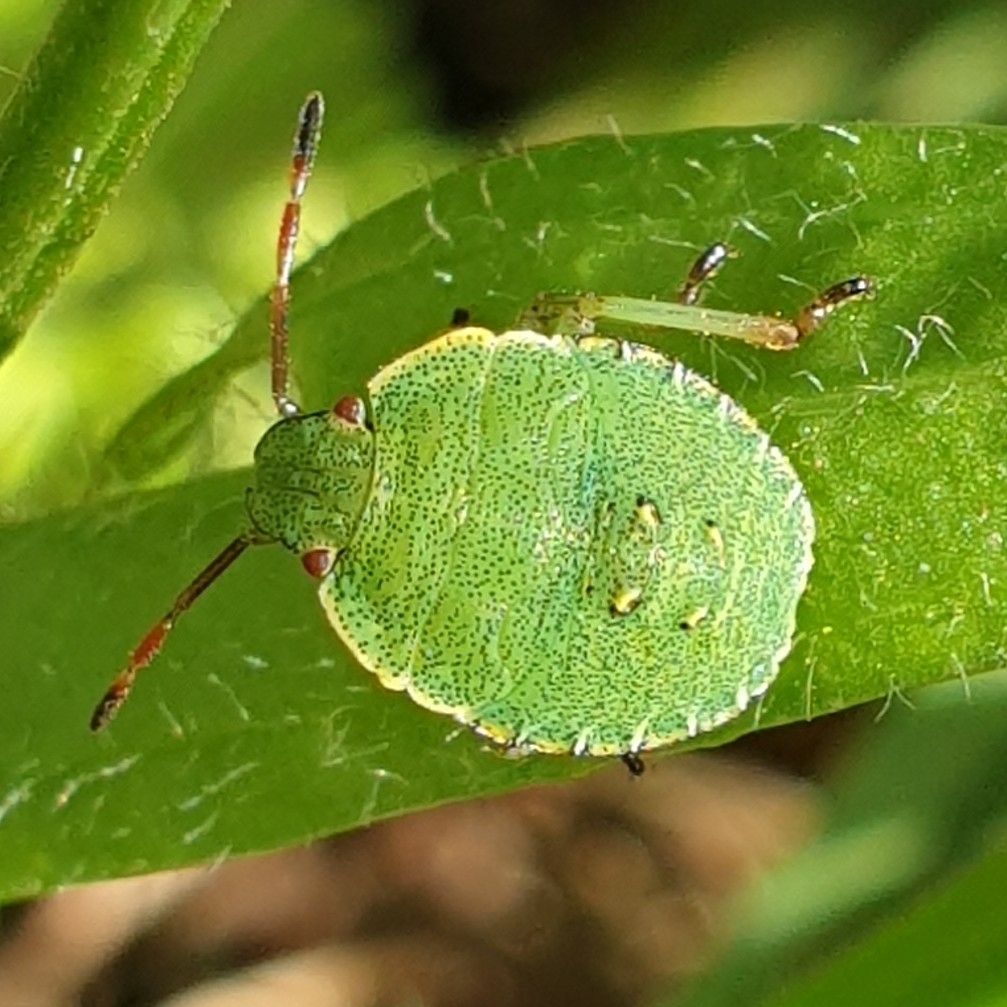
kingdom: Animalia
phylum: Arthropoda
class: Insecta
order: Hemiptera
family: Pentatomidae
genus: Palomena
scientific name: Palomena prasina
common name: Green shieldbug
